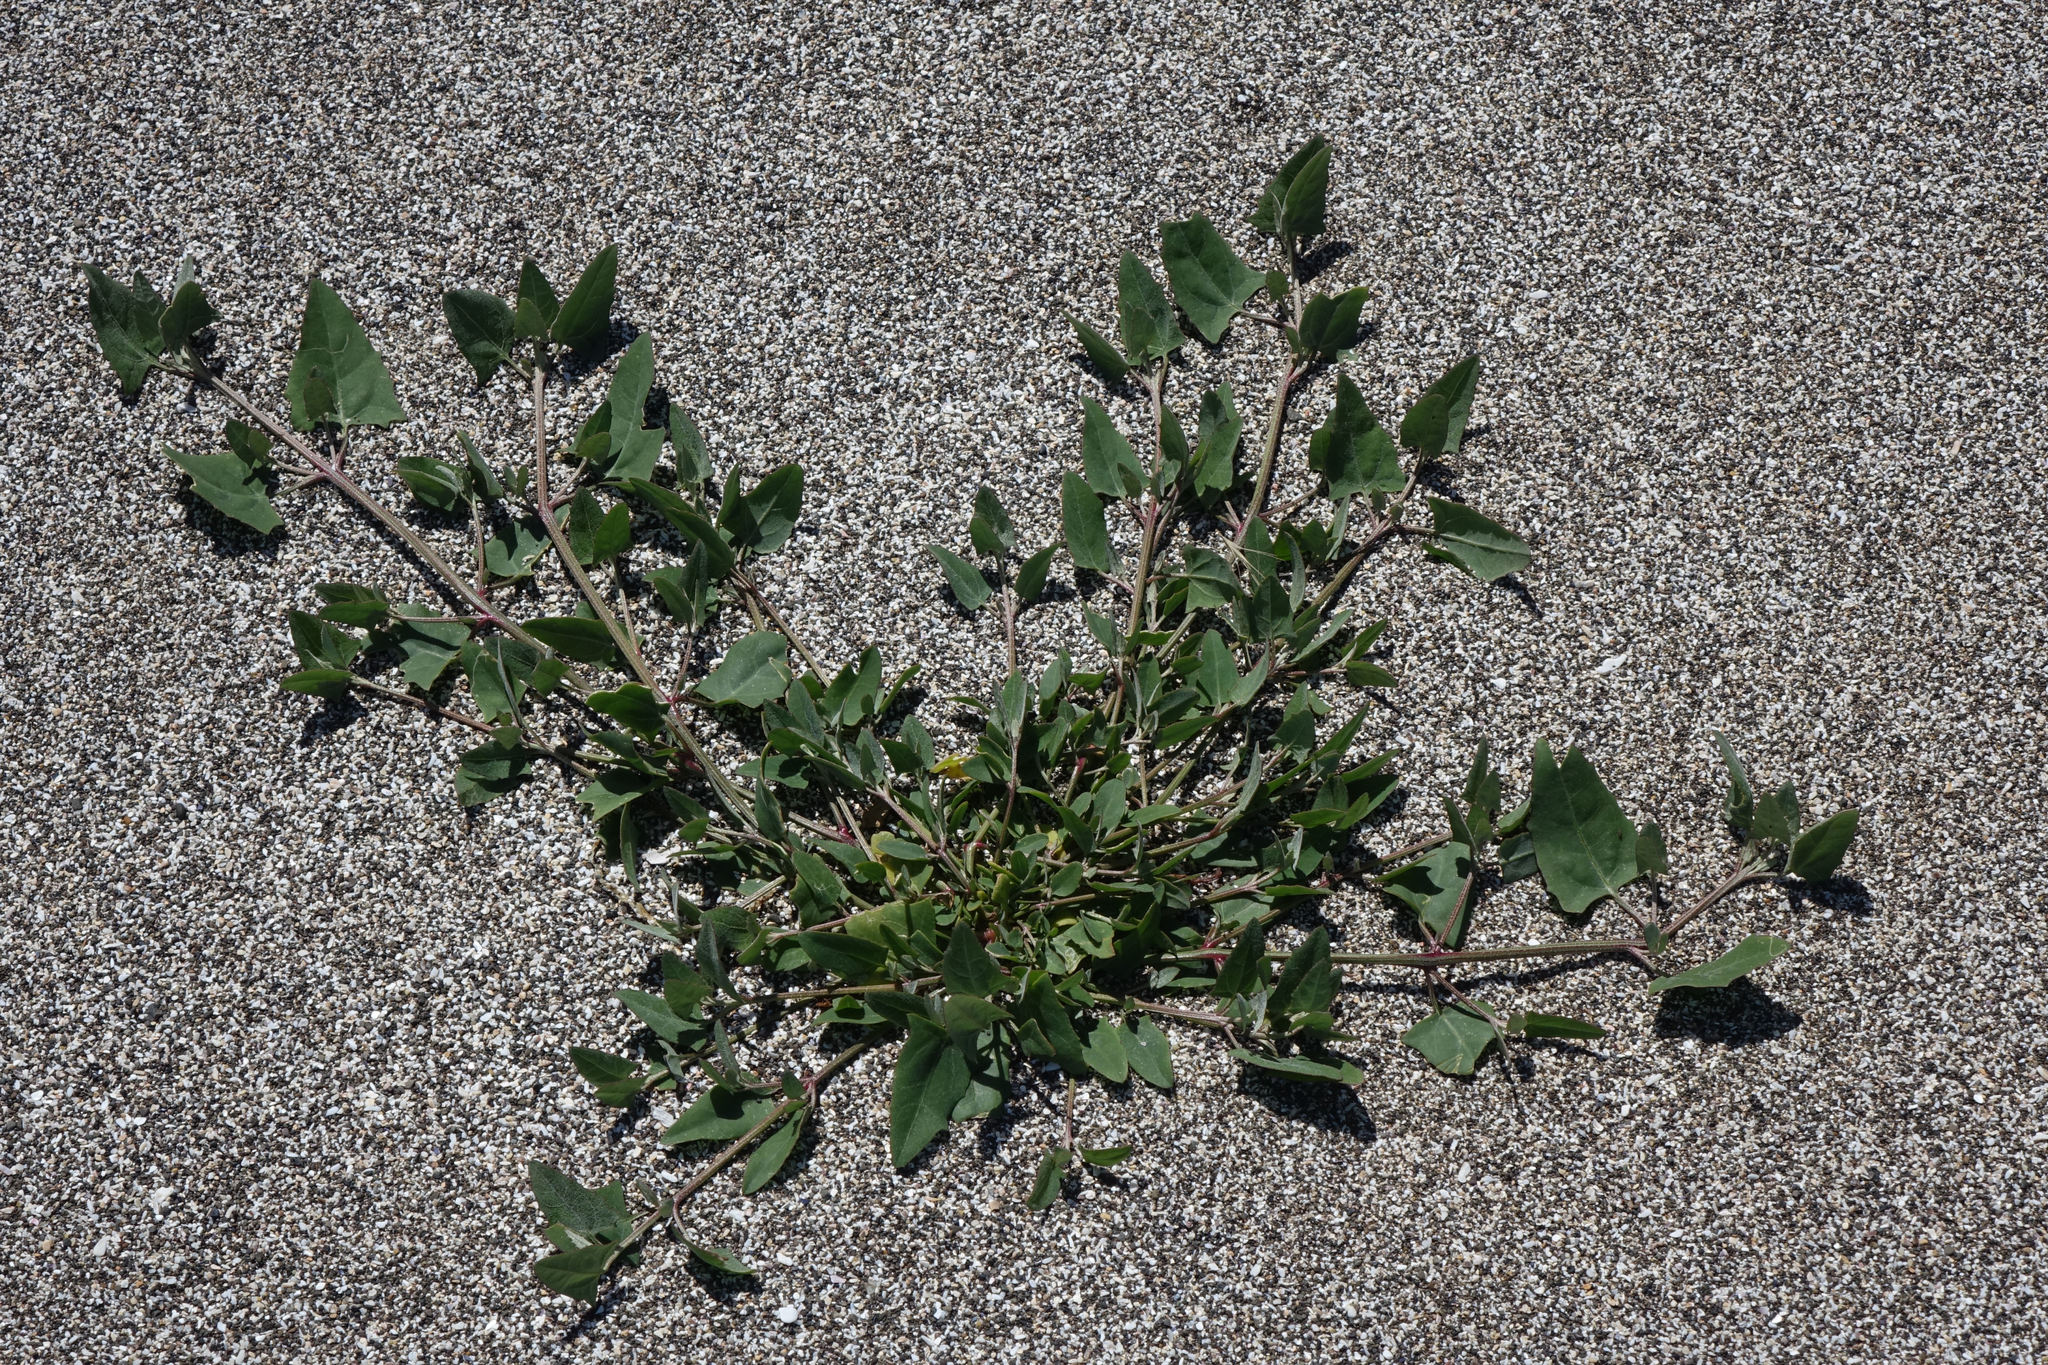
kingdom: Plantae
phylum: Tracheophyta
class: Magnoliopsida
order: Caryophyllales
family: Amaranthaceae
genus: Atriplex
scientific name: Atriplex prostrata
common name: Spear-leaved orache
